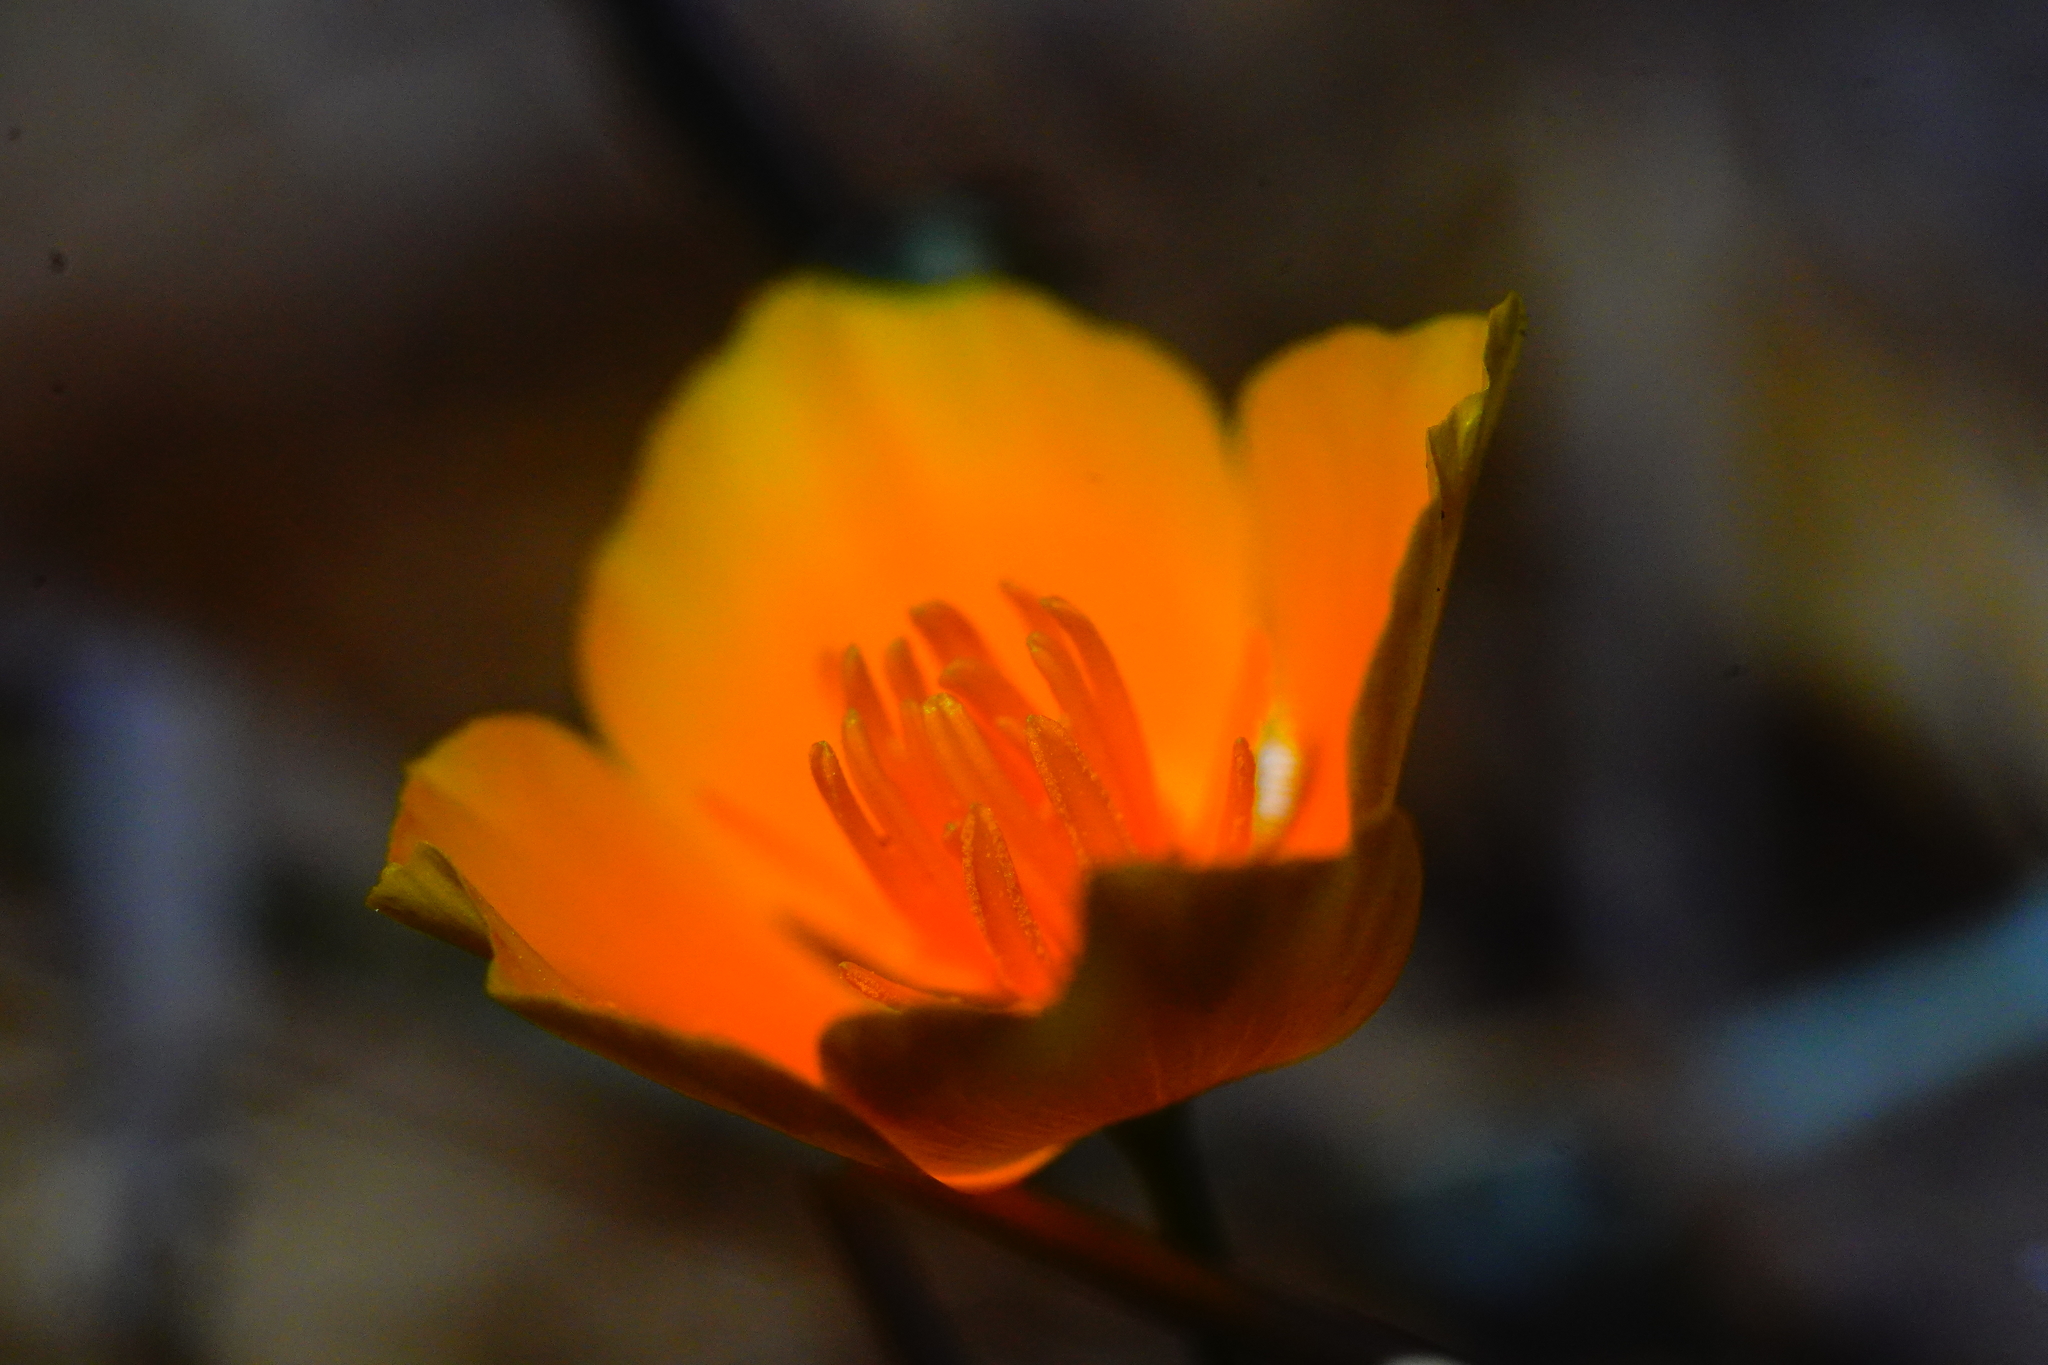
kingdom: Plantae
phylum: Tracheophyta
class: Magnoliopsida
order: Ranunculales
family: Papaveraceae
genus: Eschscholzia
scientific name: Eschscholzia californica
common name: California poppy
